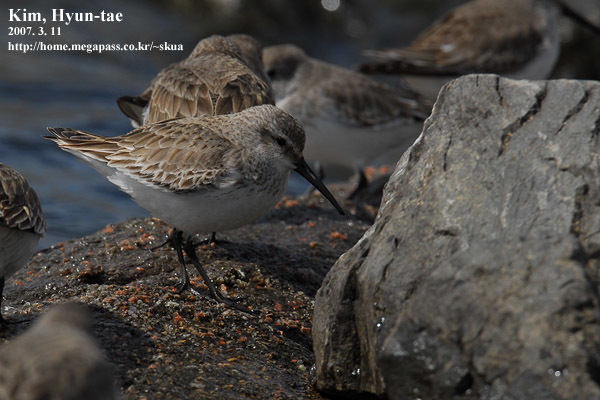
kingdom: Animalia
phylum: Chordata
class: Aves
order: Charadriiformes
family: Scolopacidae
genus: Calidris
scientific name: Calidris alpina
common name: Dunlin
